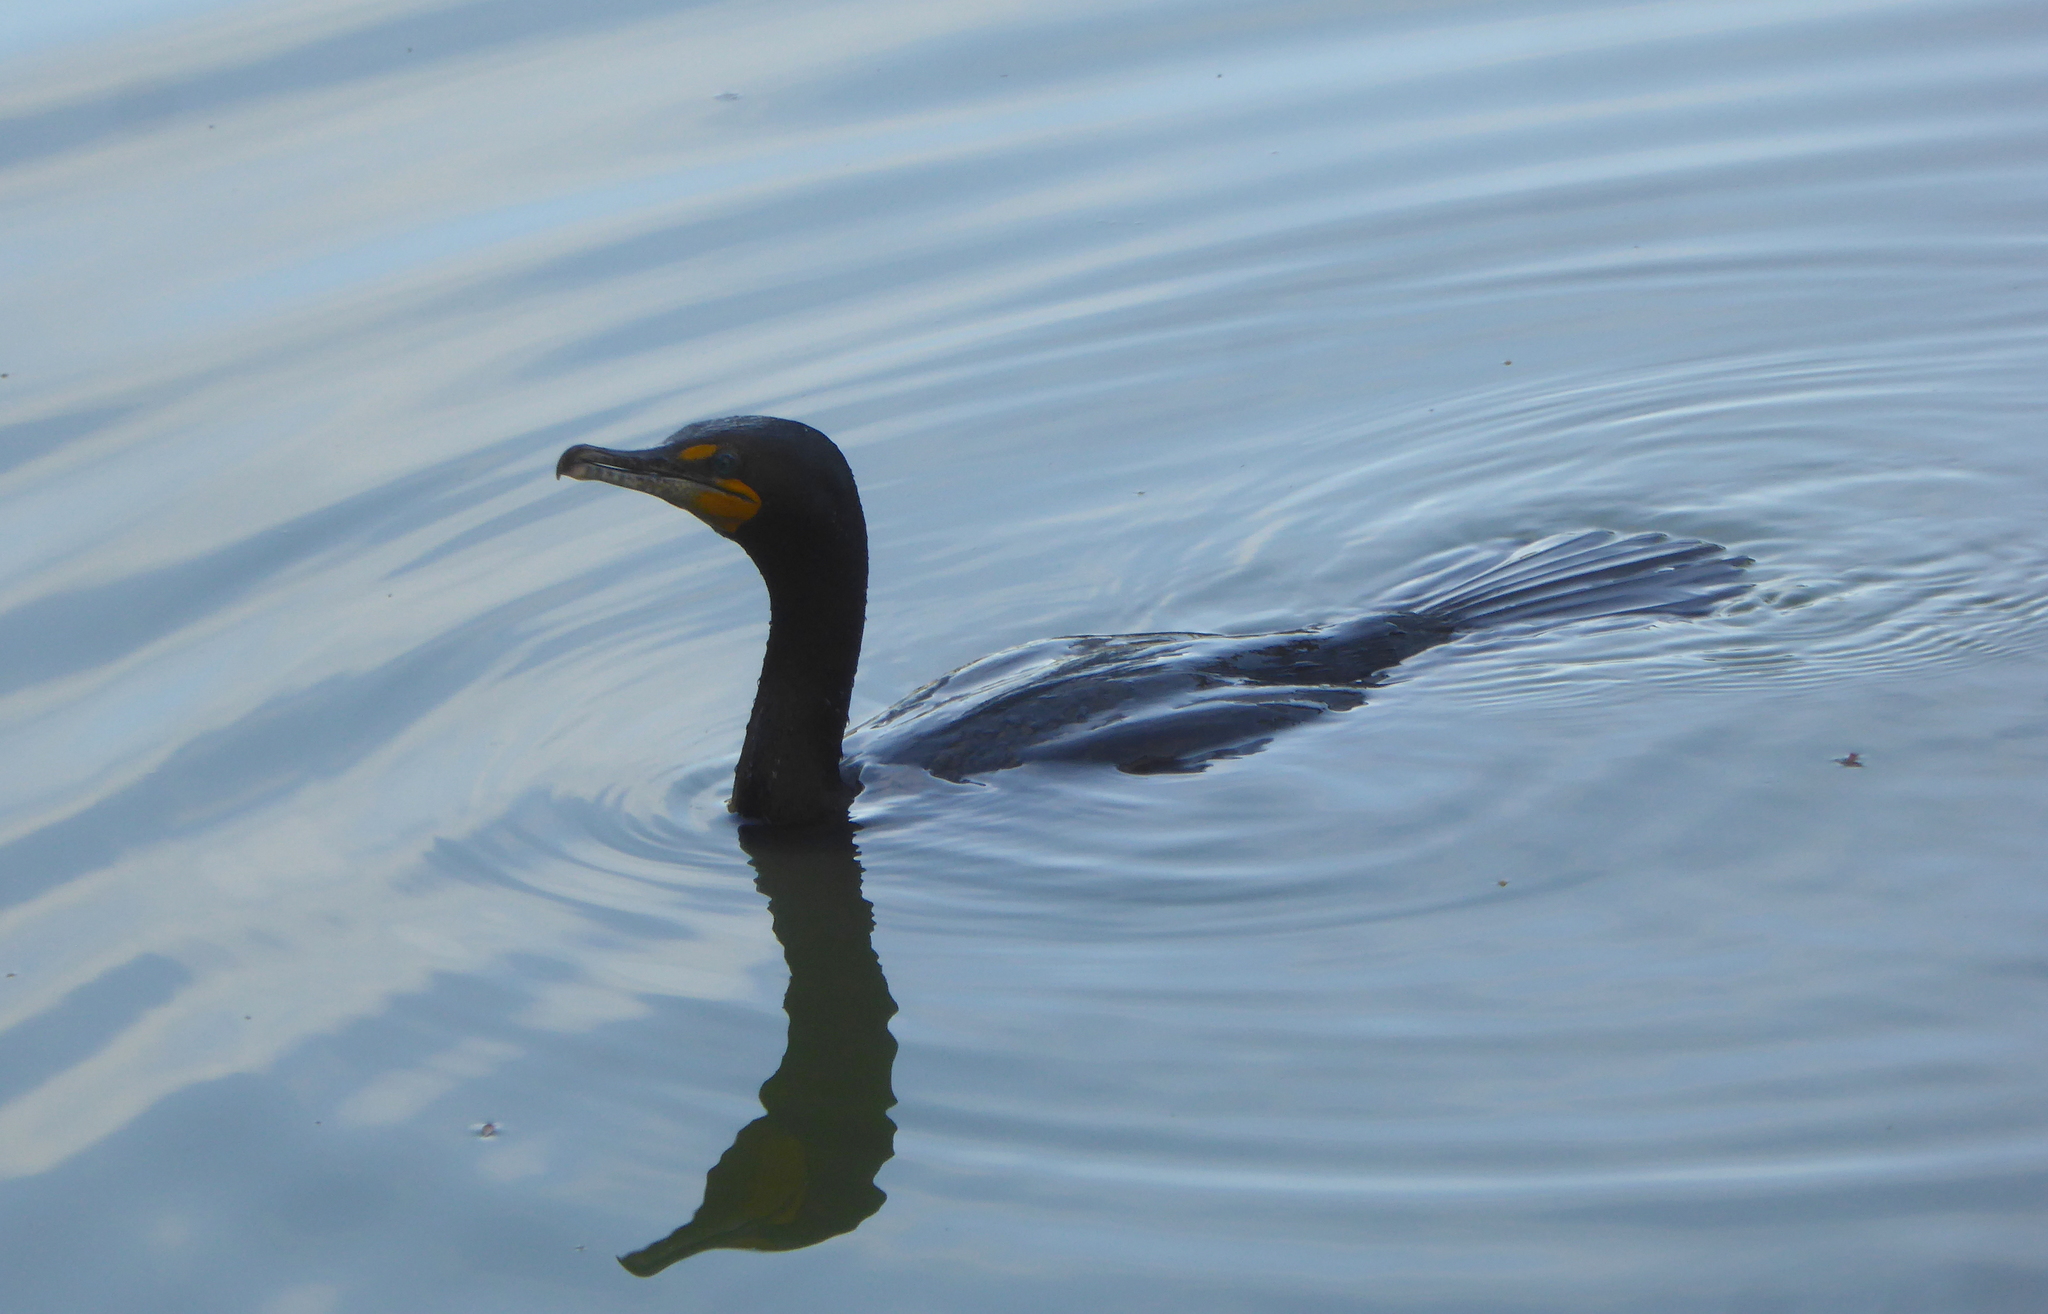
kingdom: Animalia
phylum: Chordata
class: Aves
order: Suliformes
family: Phalacrocoracidae
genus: Phalacrocorax
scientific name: Phalacrocorax auritus
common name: Double-crested cormorant
